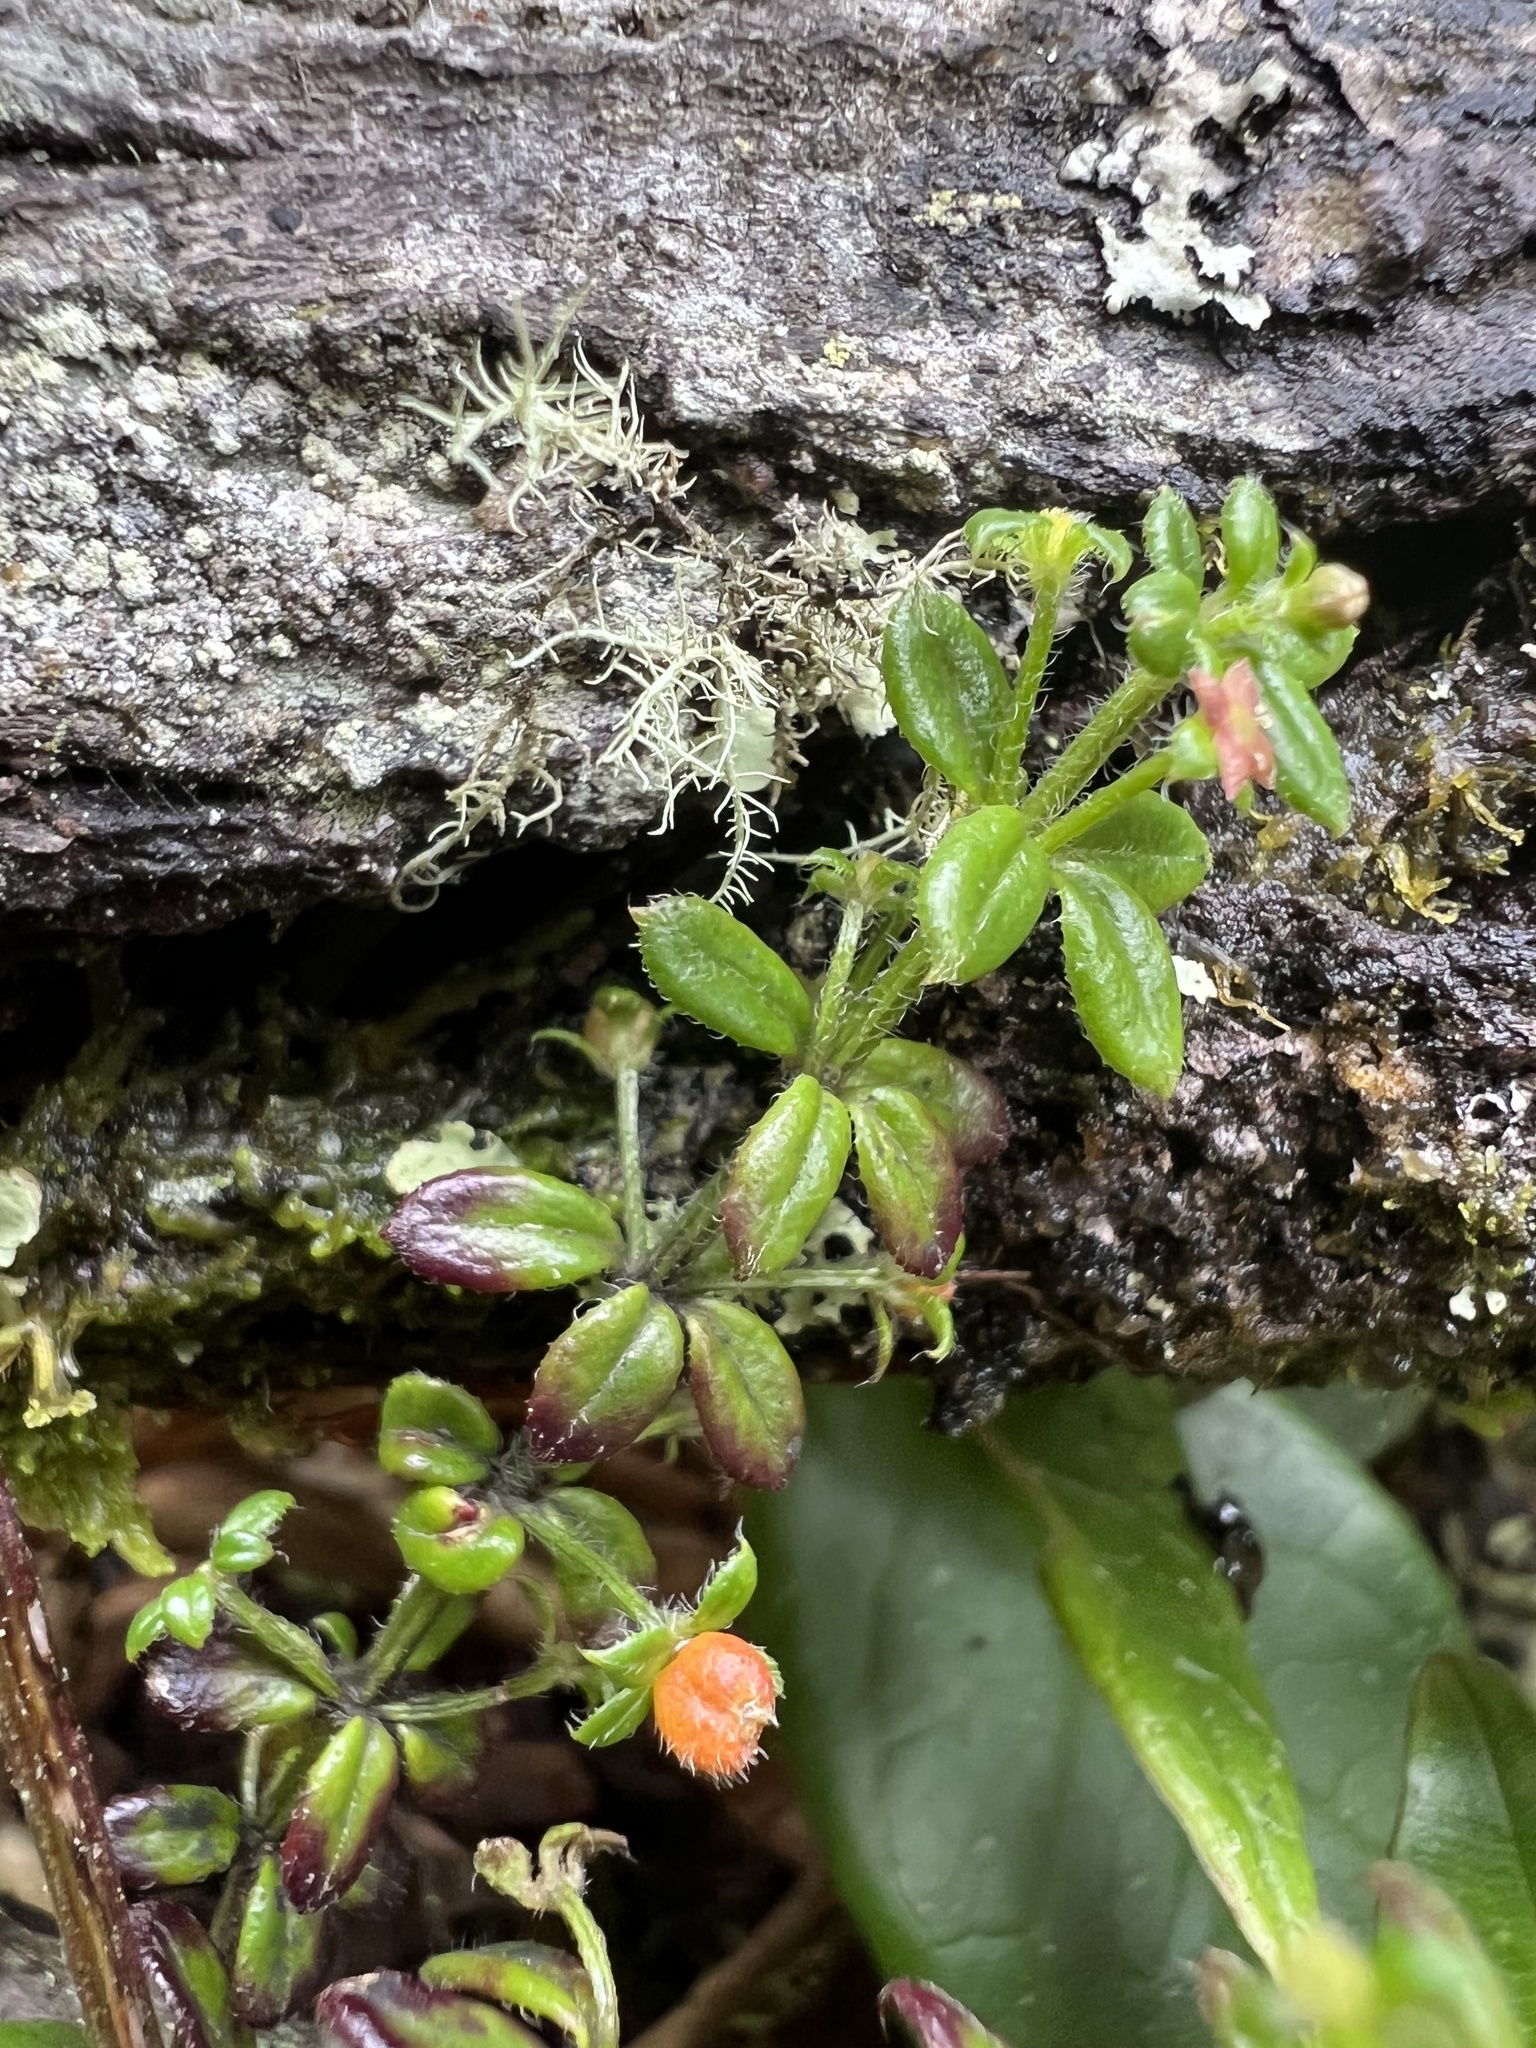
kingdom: Plantae
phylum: Tracheophyta
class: Magnoliopsida
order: Gentianales
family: Rubiaceae
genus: Galium
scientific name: Galium hypocarpium
